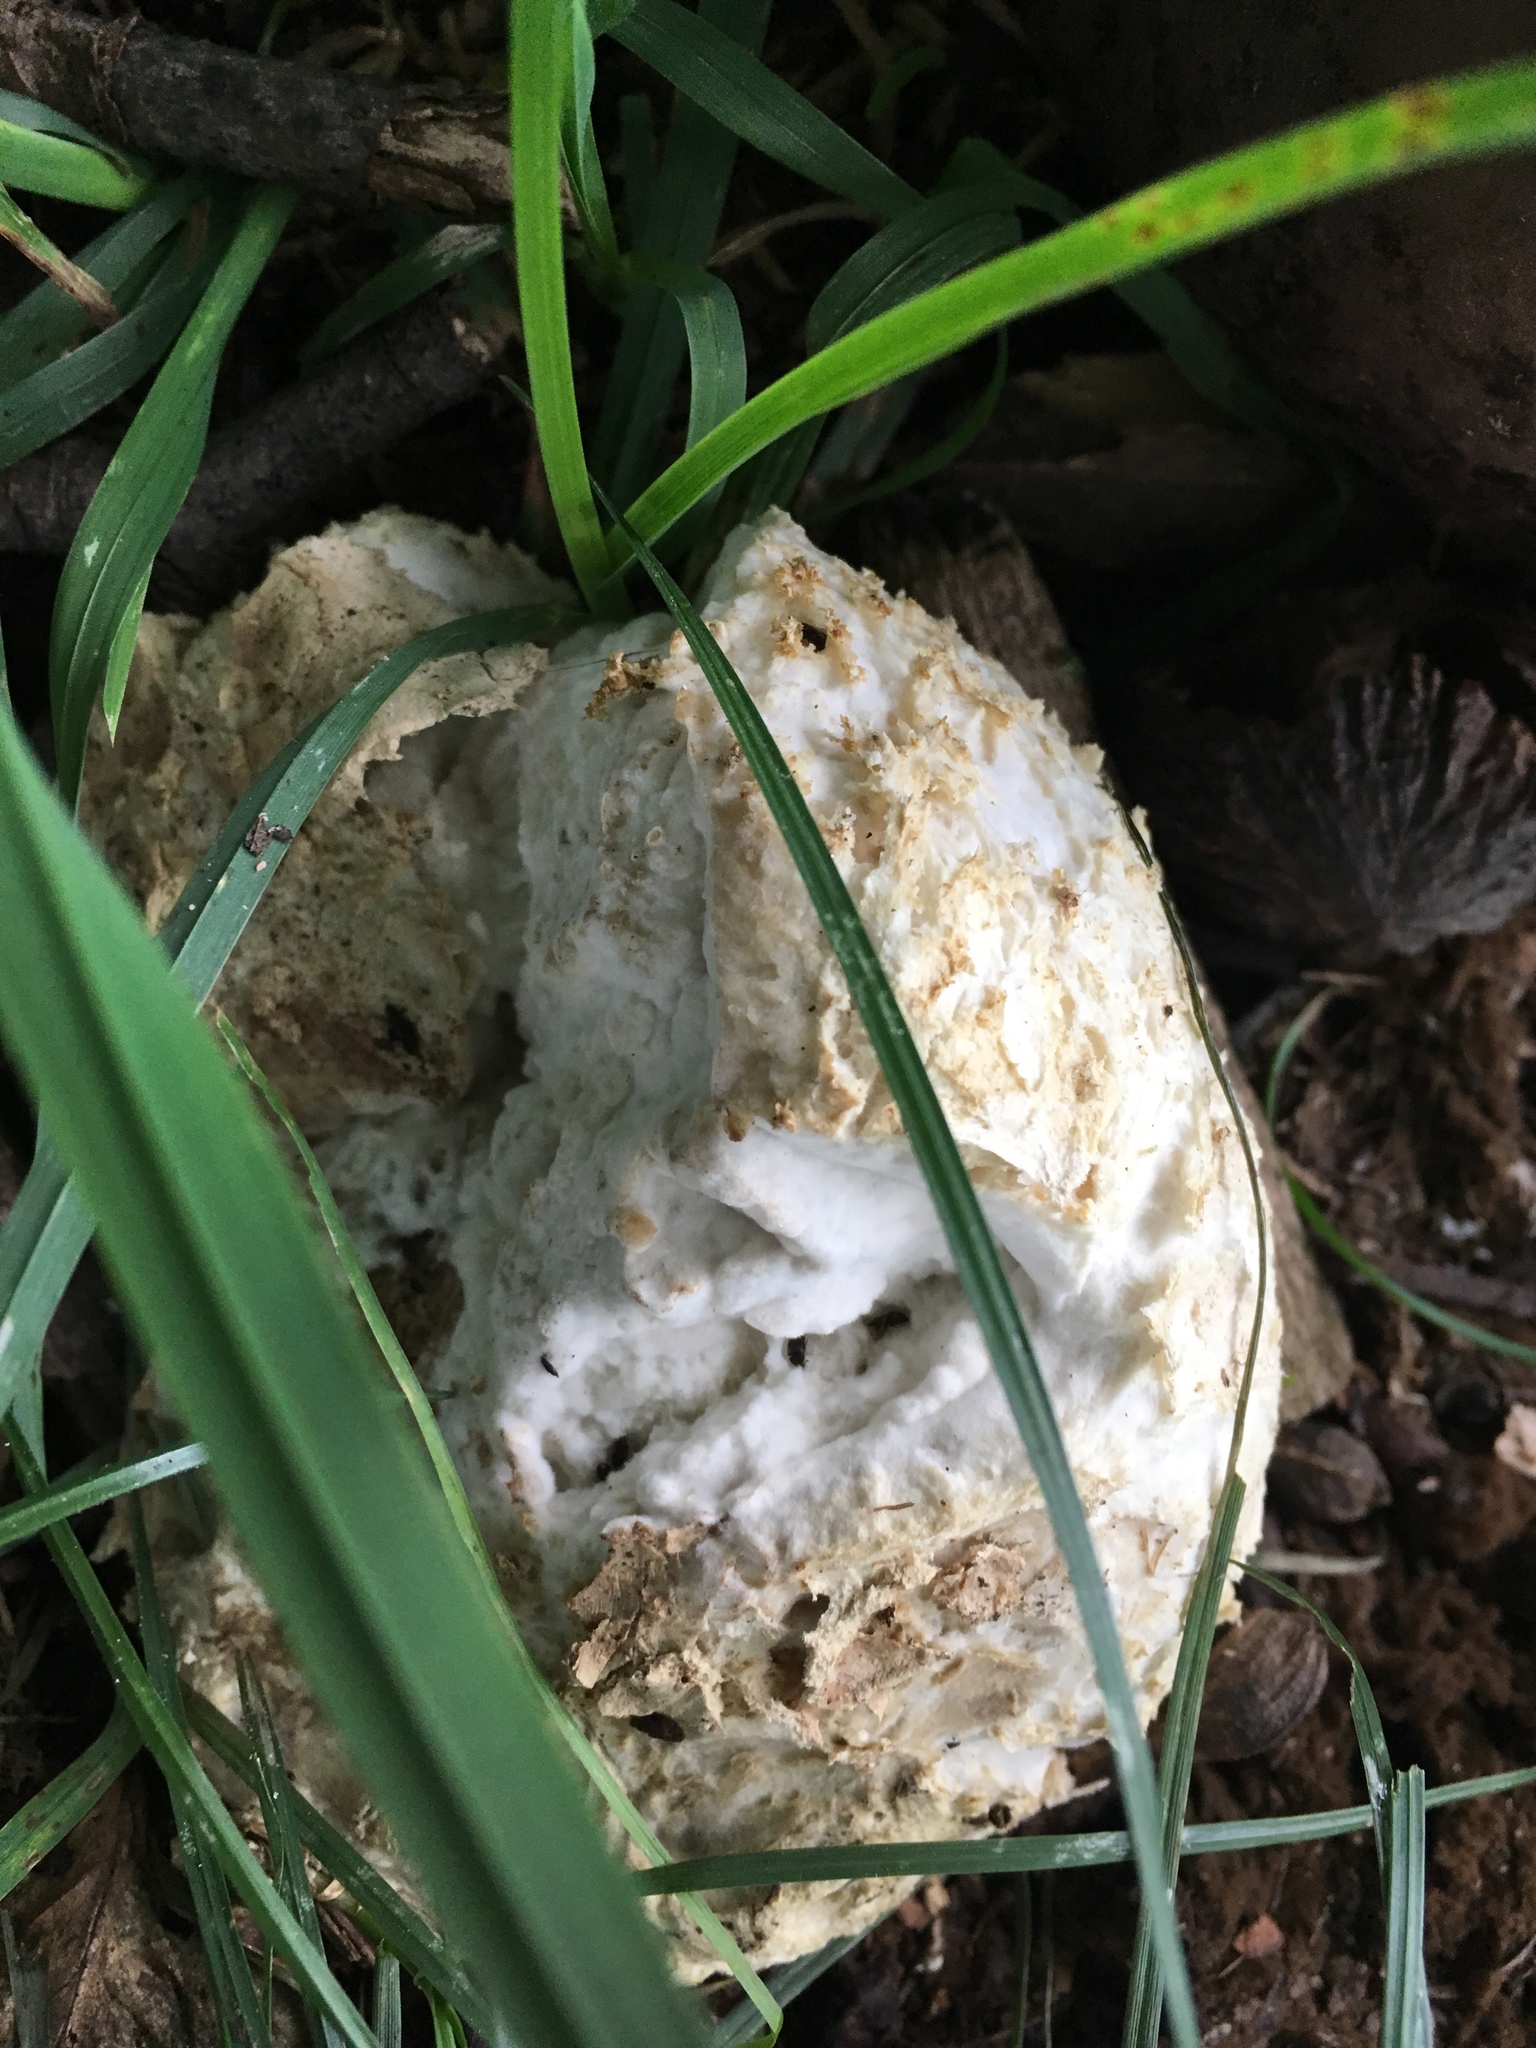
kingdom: Fungi
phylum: Basidiomycota
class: Agaricomycetes
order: Agaricales
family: Agaricaceae
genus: Mycenastrum
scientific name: Mycenastrum corium
